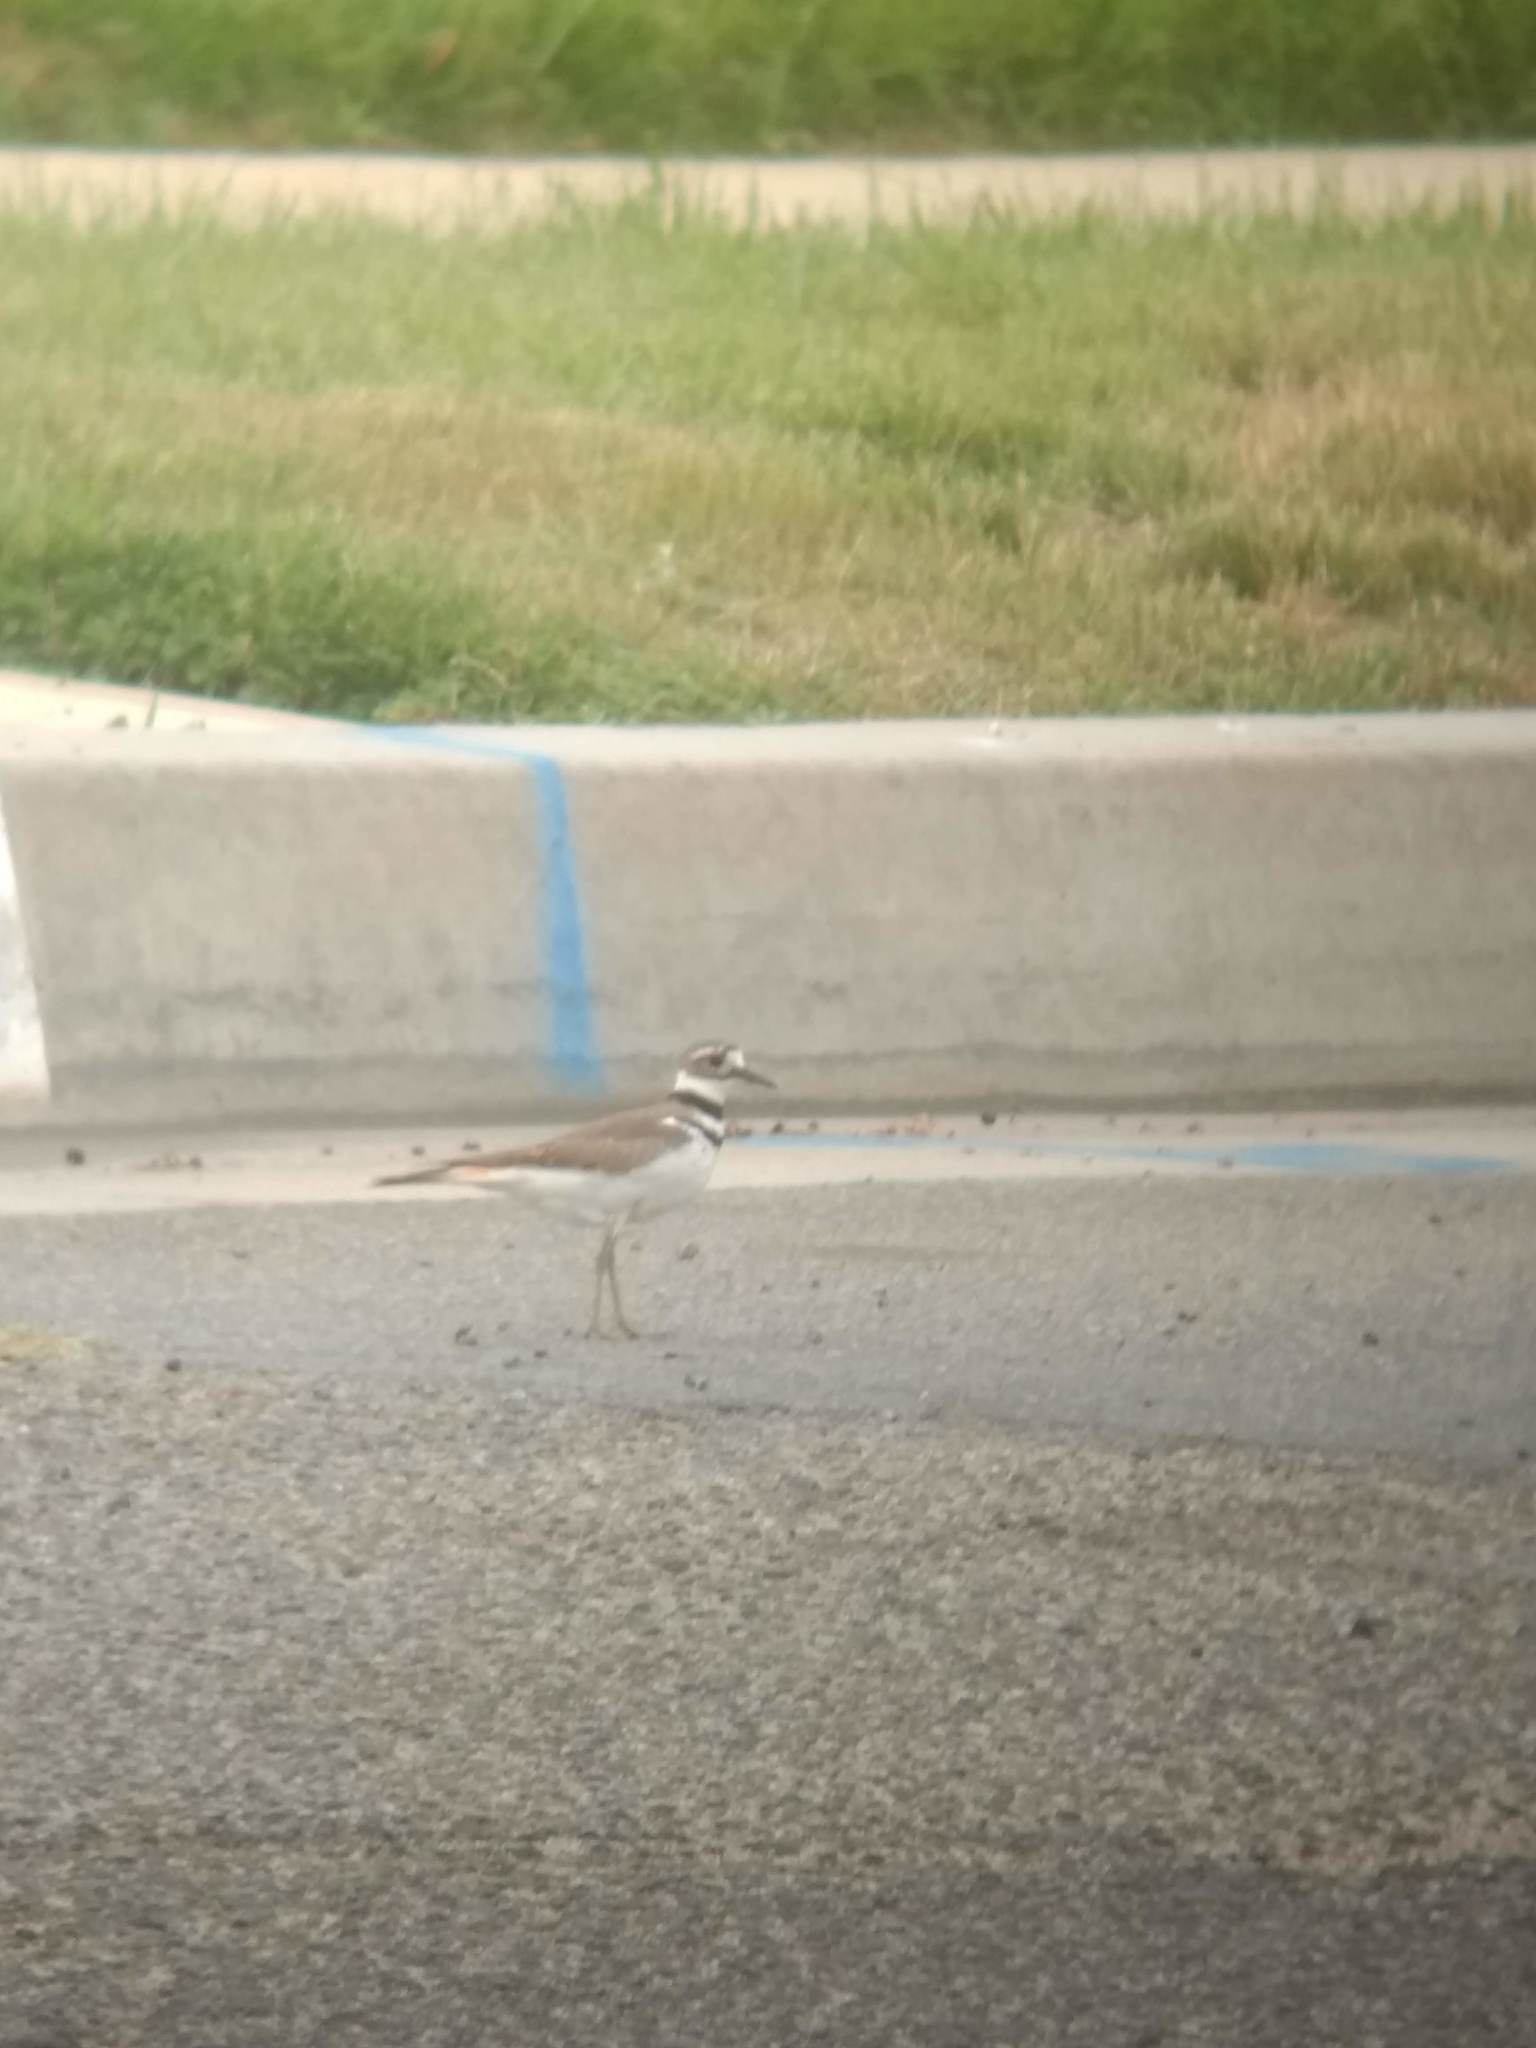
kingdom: Animalia
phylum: Chordata
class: Aves
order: Charadriiformes
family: Charadriidae
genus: Charadrius
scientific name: Charadrius vociferus
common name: Killdeer
